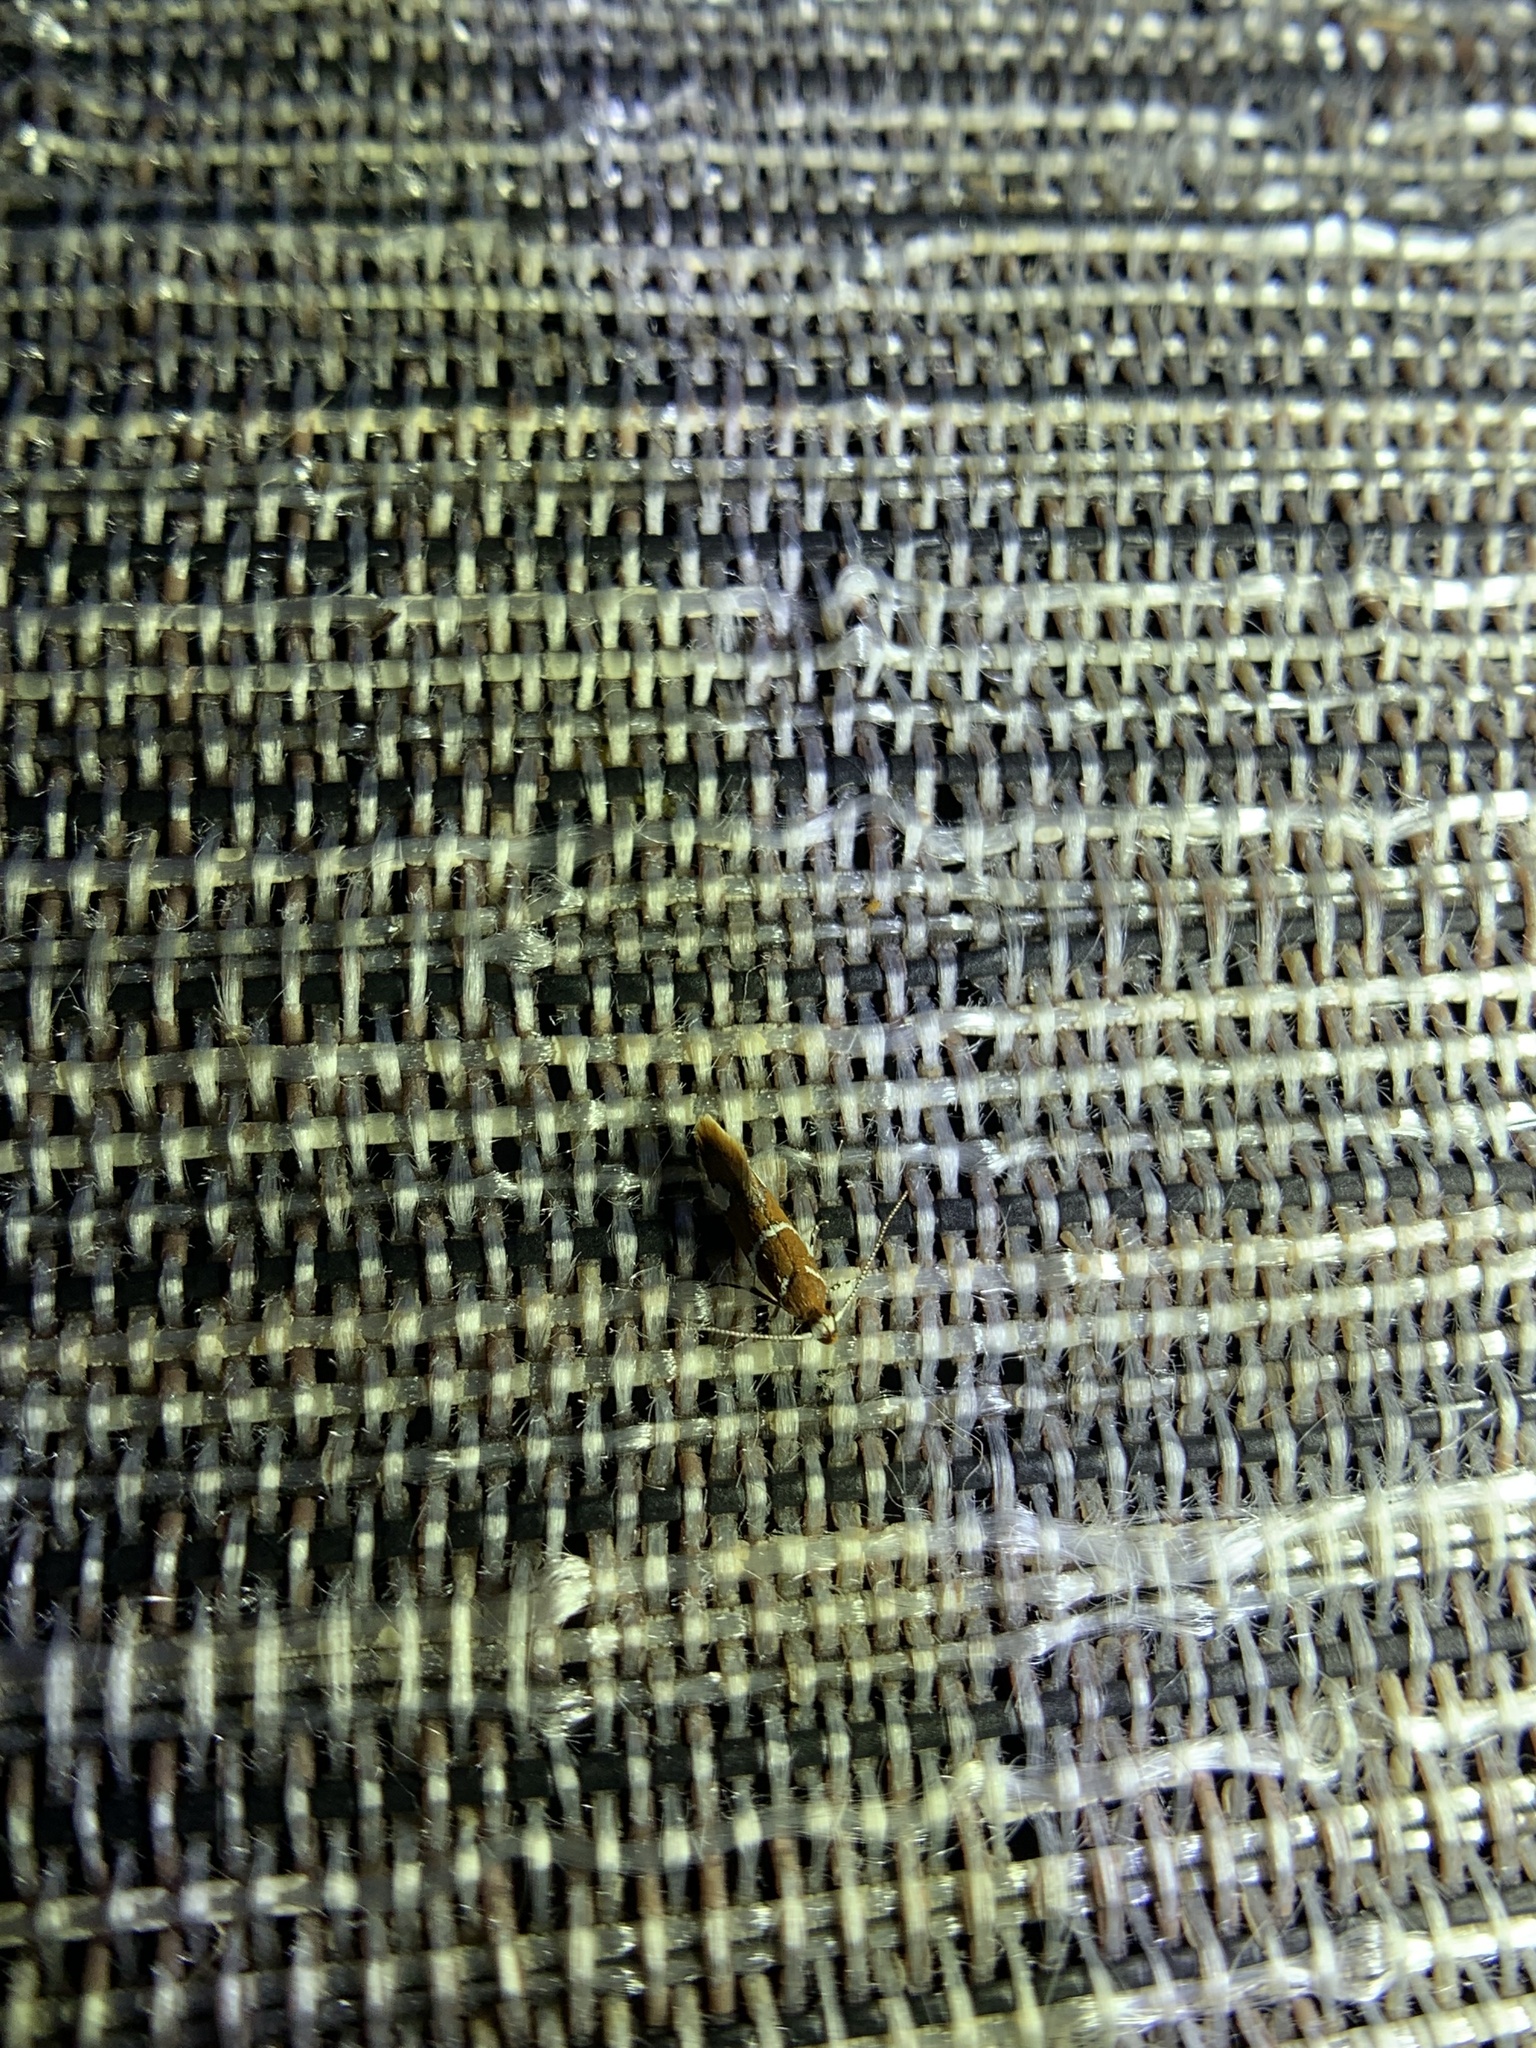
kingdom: Animalia
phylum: Arthropoda
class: Insecta
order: Lepidoptera
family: Oecophoridae
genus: Promalactis
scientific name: Promalactis suzukiella
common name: Moth
